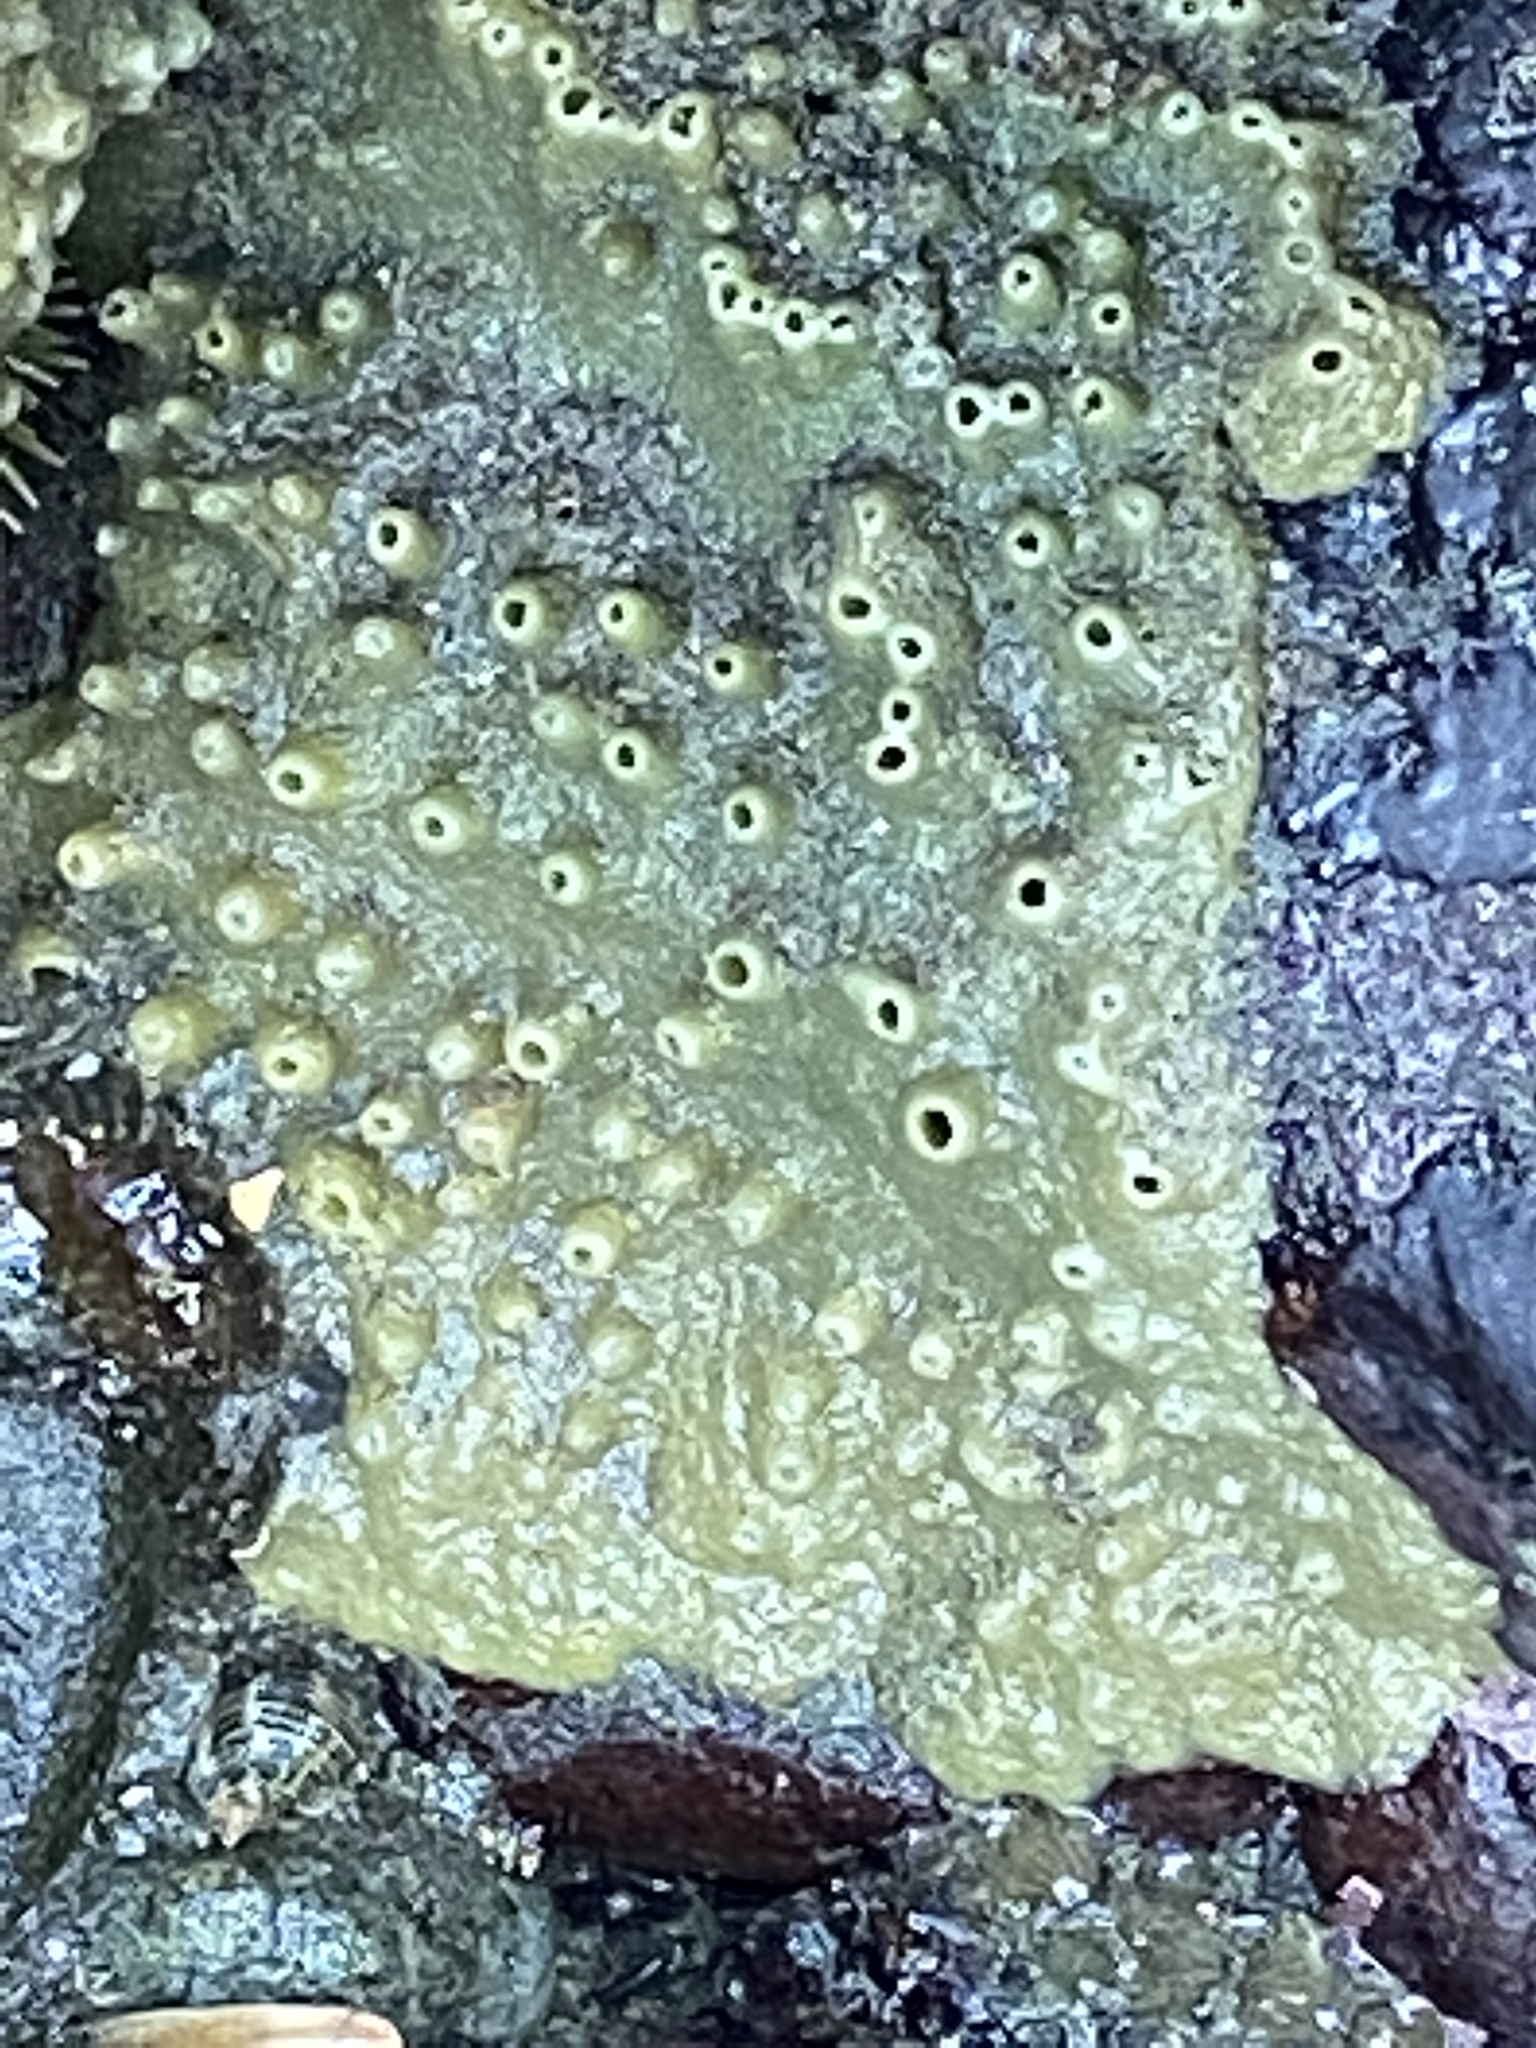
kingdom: Animalia
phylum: Porifera
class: Demospongiae
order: Suberitida
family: Halichondriidae
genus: Halichondria
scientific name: Halichondria panicea
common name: Breadcrumb sponge
